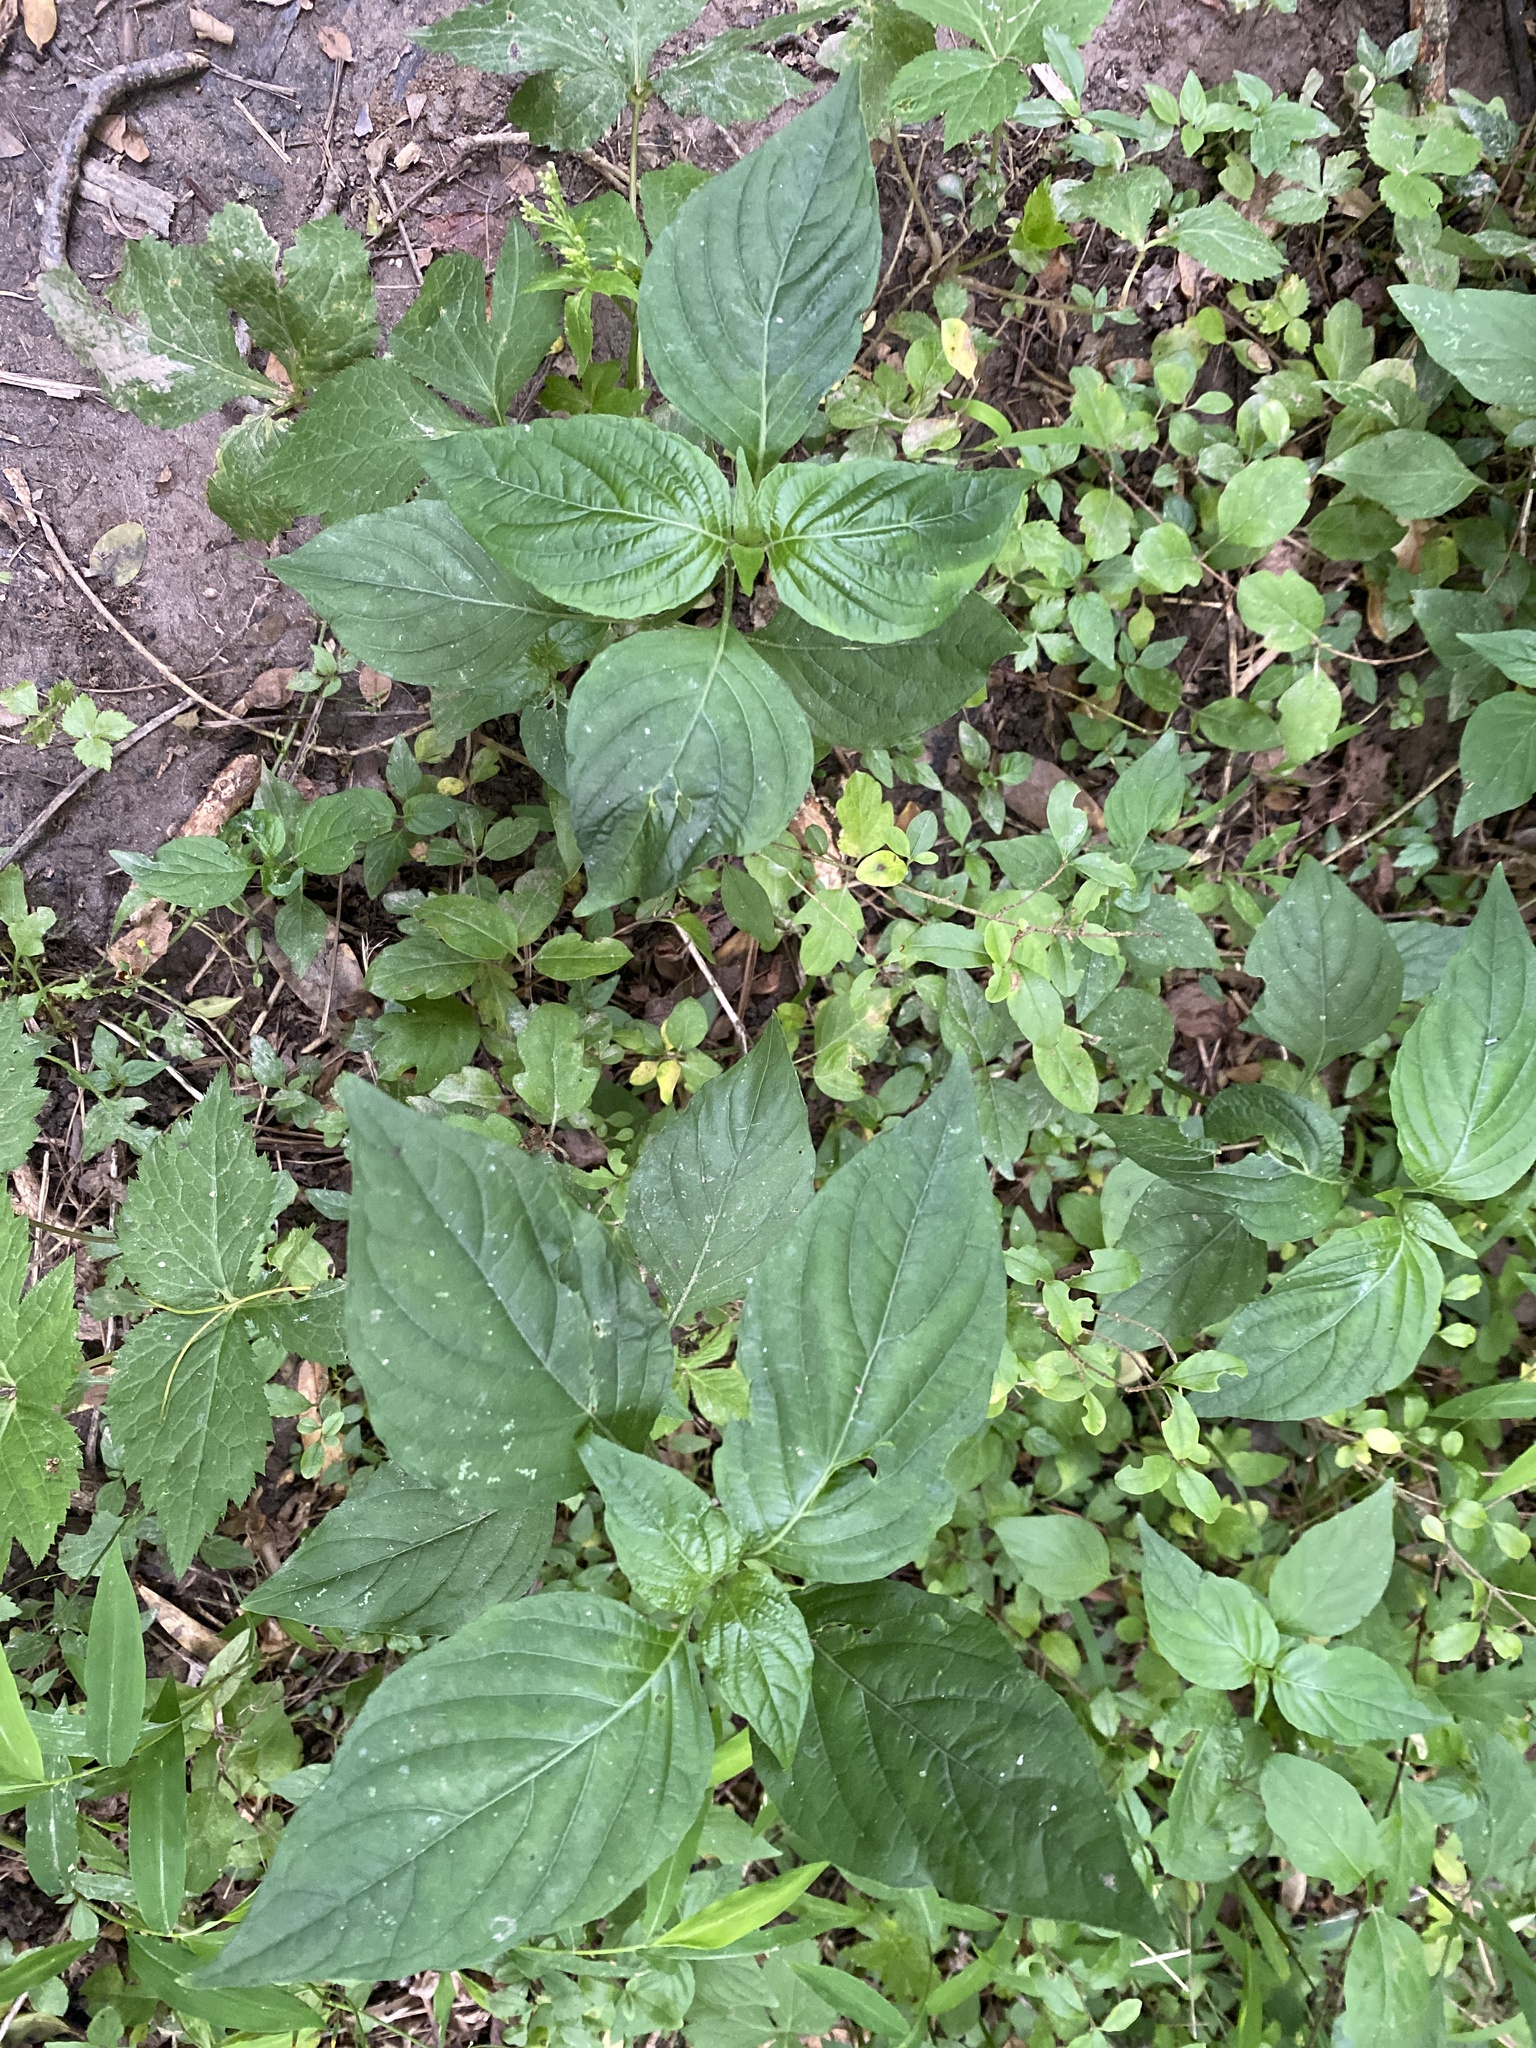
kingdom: Plantae
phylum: Tracheophyta
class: Magnoliopsida
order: Caryophyllales
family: Amaranthaceae
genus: Achyranthes
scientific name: Achyranthes bidentata
